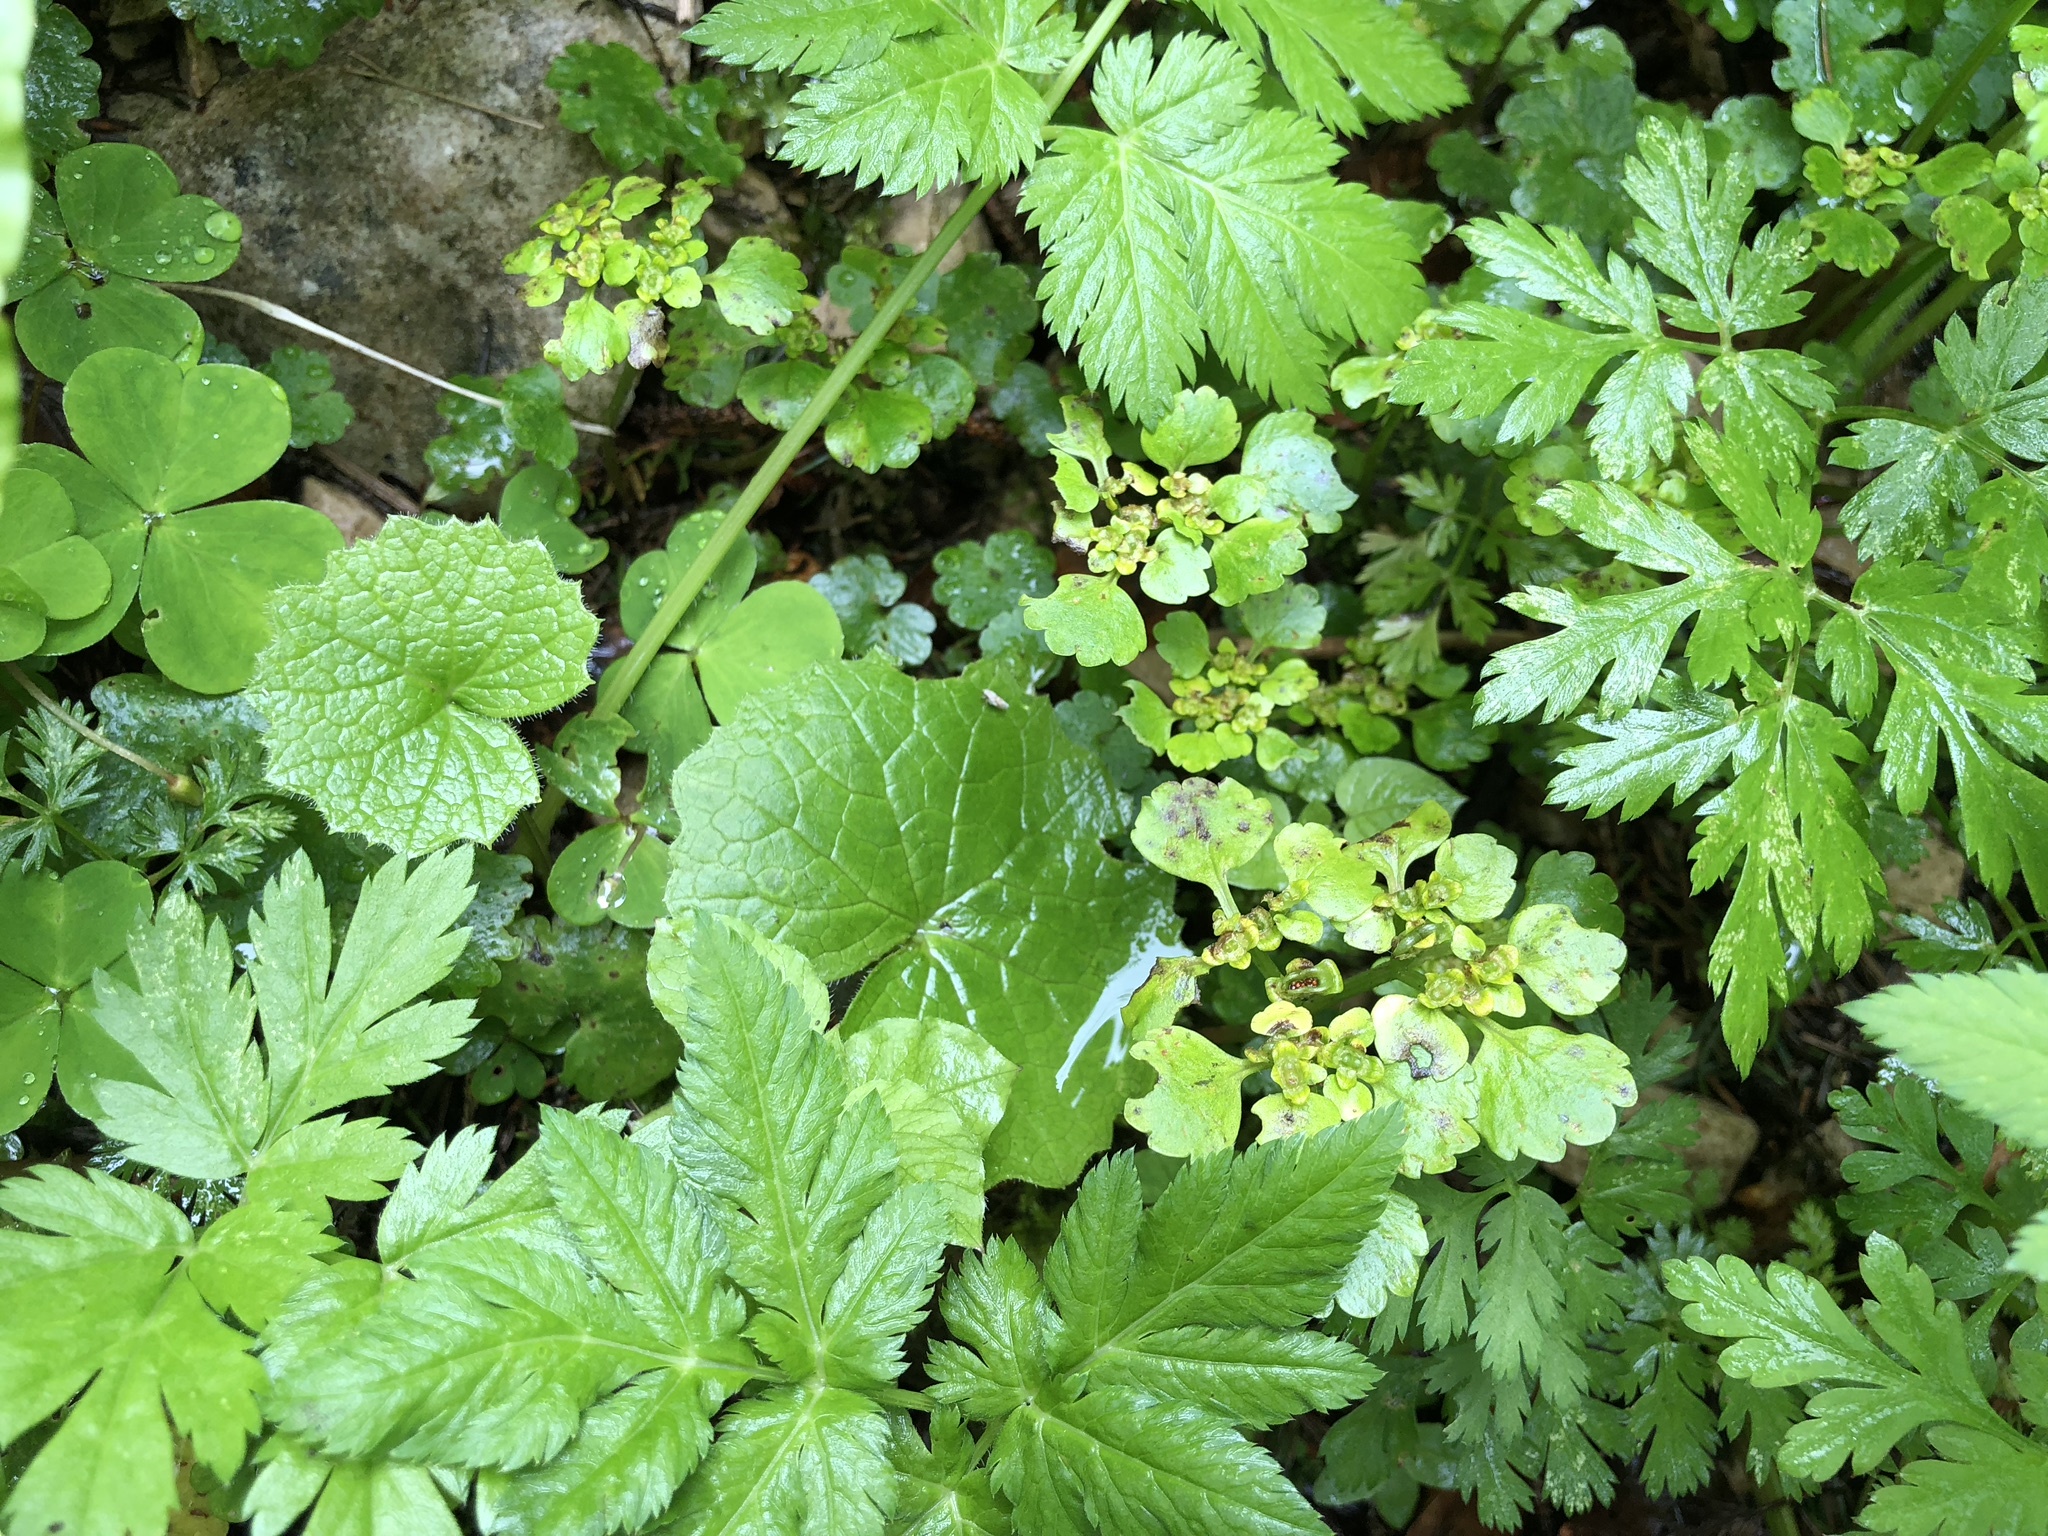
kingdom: Plantae
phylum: Tracheophyta
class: Magnoliopsida
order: Saxifragales
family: Saxifragaceae
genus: Chrysosplenium
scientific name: Chrysosplenium alternifolium
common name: Alternate-leaved golden-saxifrage
